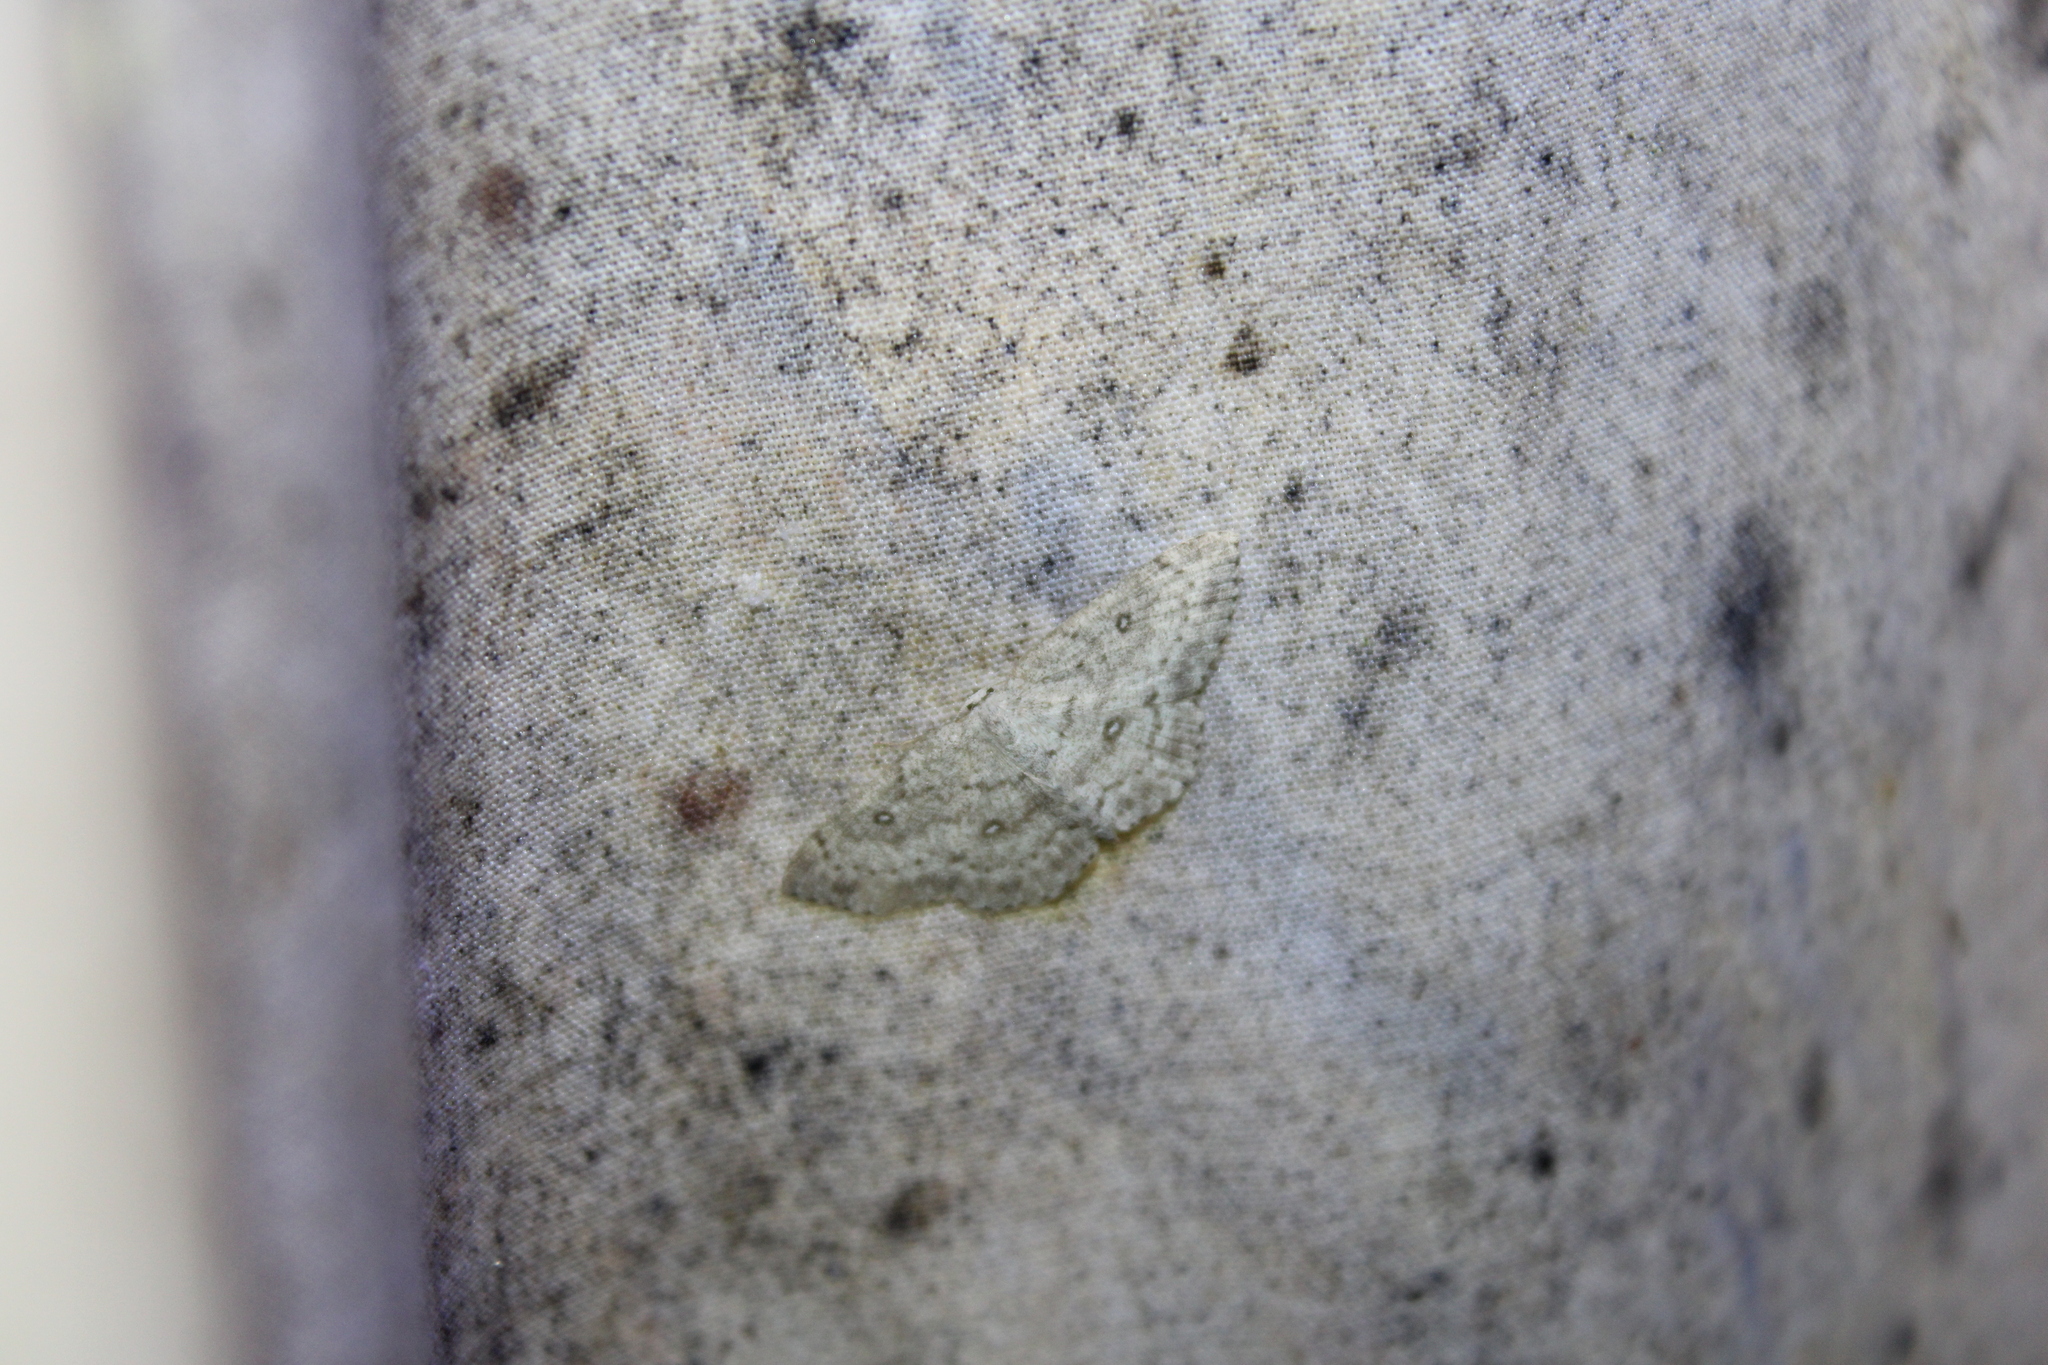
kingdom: Animalia
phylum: Arthropoda
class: Insecta
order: Lepidoptera
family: Geometridae
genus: Cyclophora
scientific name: Cyclophora pendulinaria
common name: Sweet fern geometer
